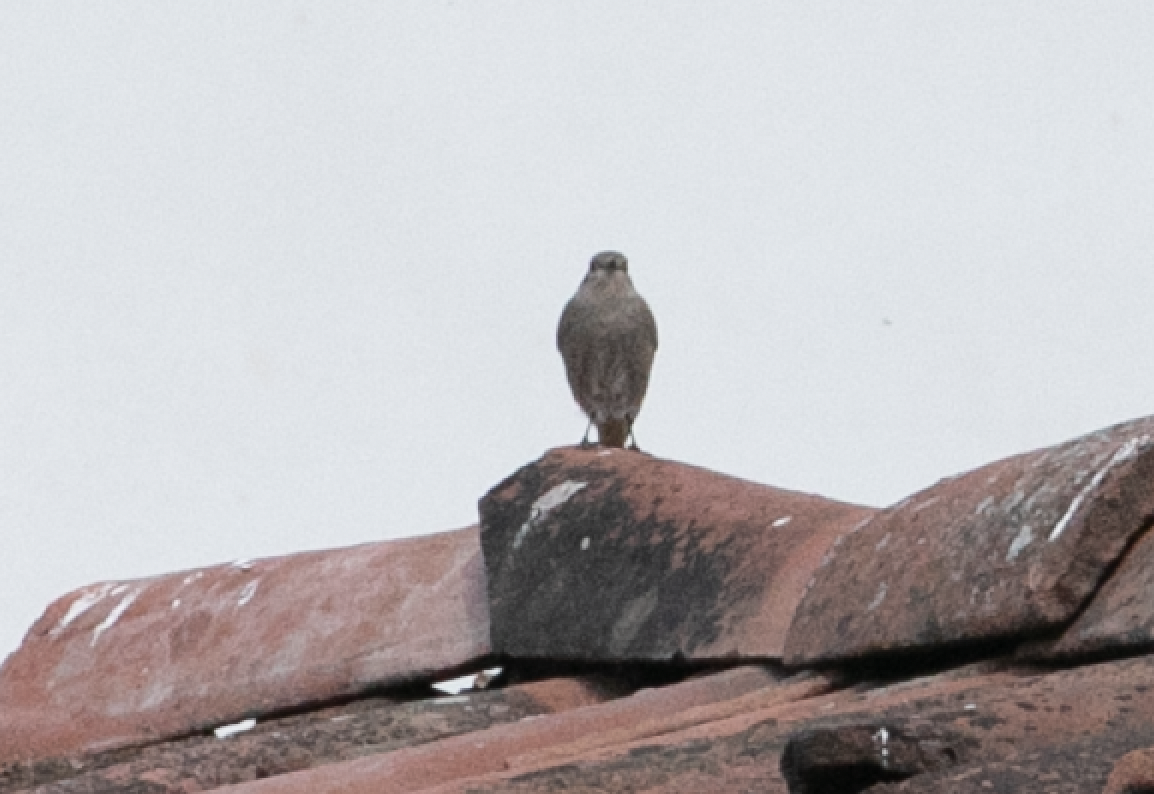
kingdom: Animalia
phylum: Chordata
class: Aves
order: Passeriformes
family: Muscicapidae
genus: Phoenicurus
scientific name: Phoenicurus ochruros
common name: Black redstart
